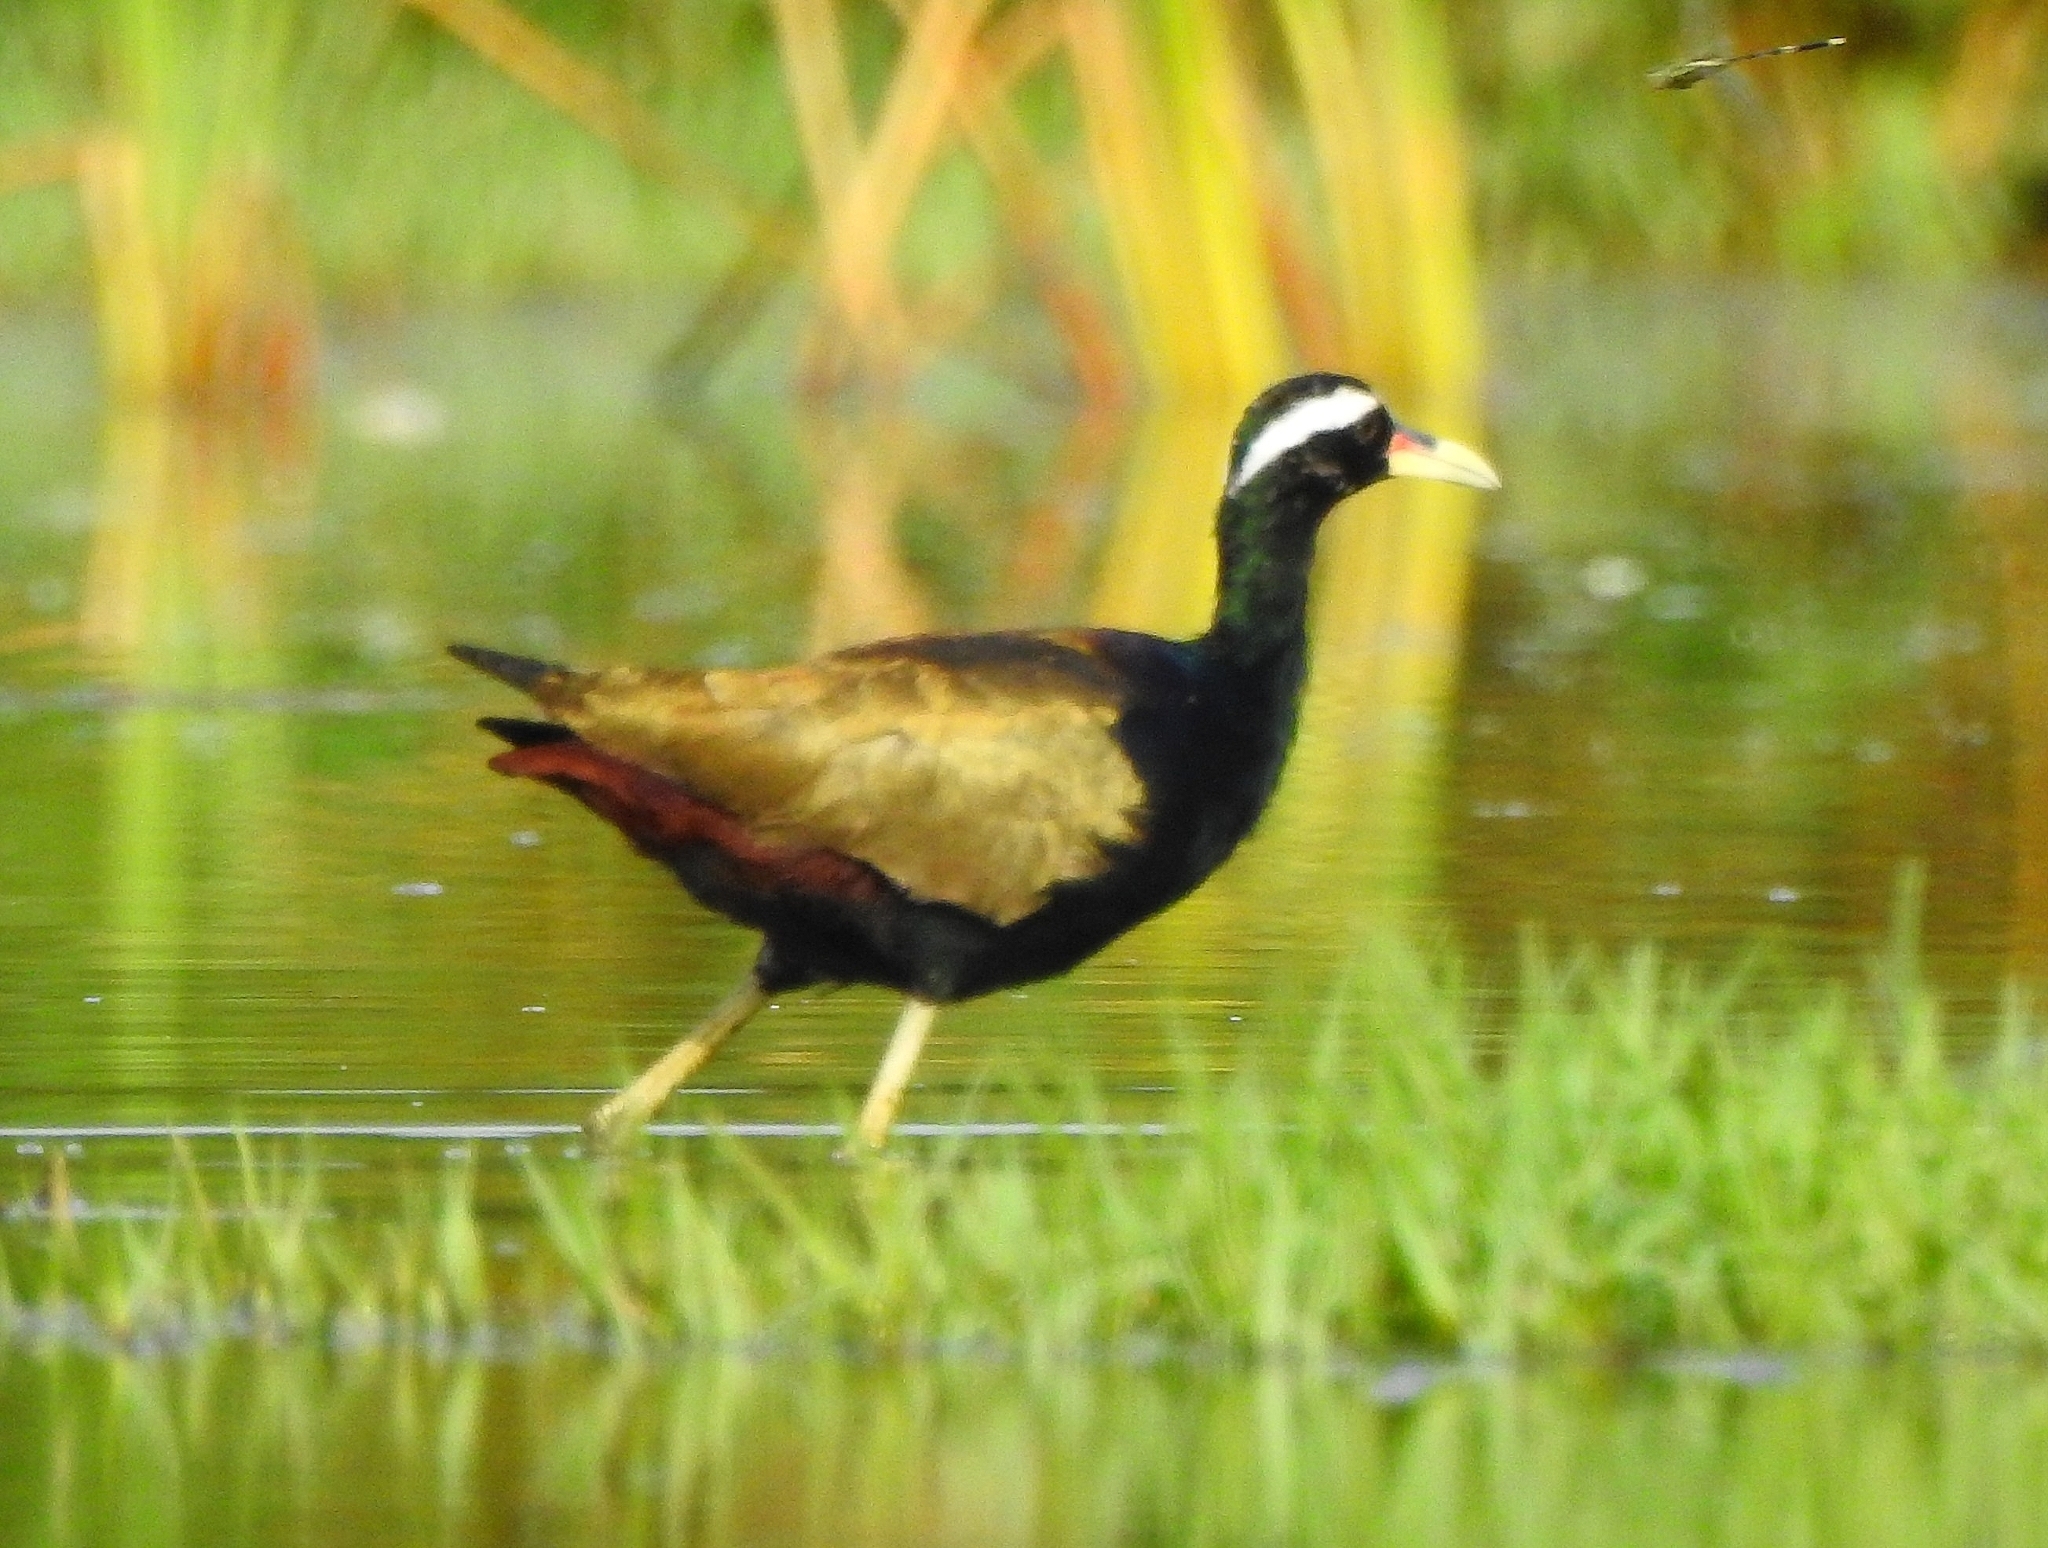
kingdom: Animalia
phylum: Chordata
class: Aves
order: Charadriiformes
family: Jacanidae
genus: Metopidius
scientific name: Metopidius indicus
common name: Bronze-winged jacana
